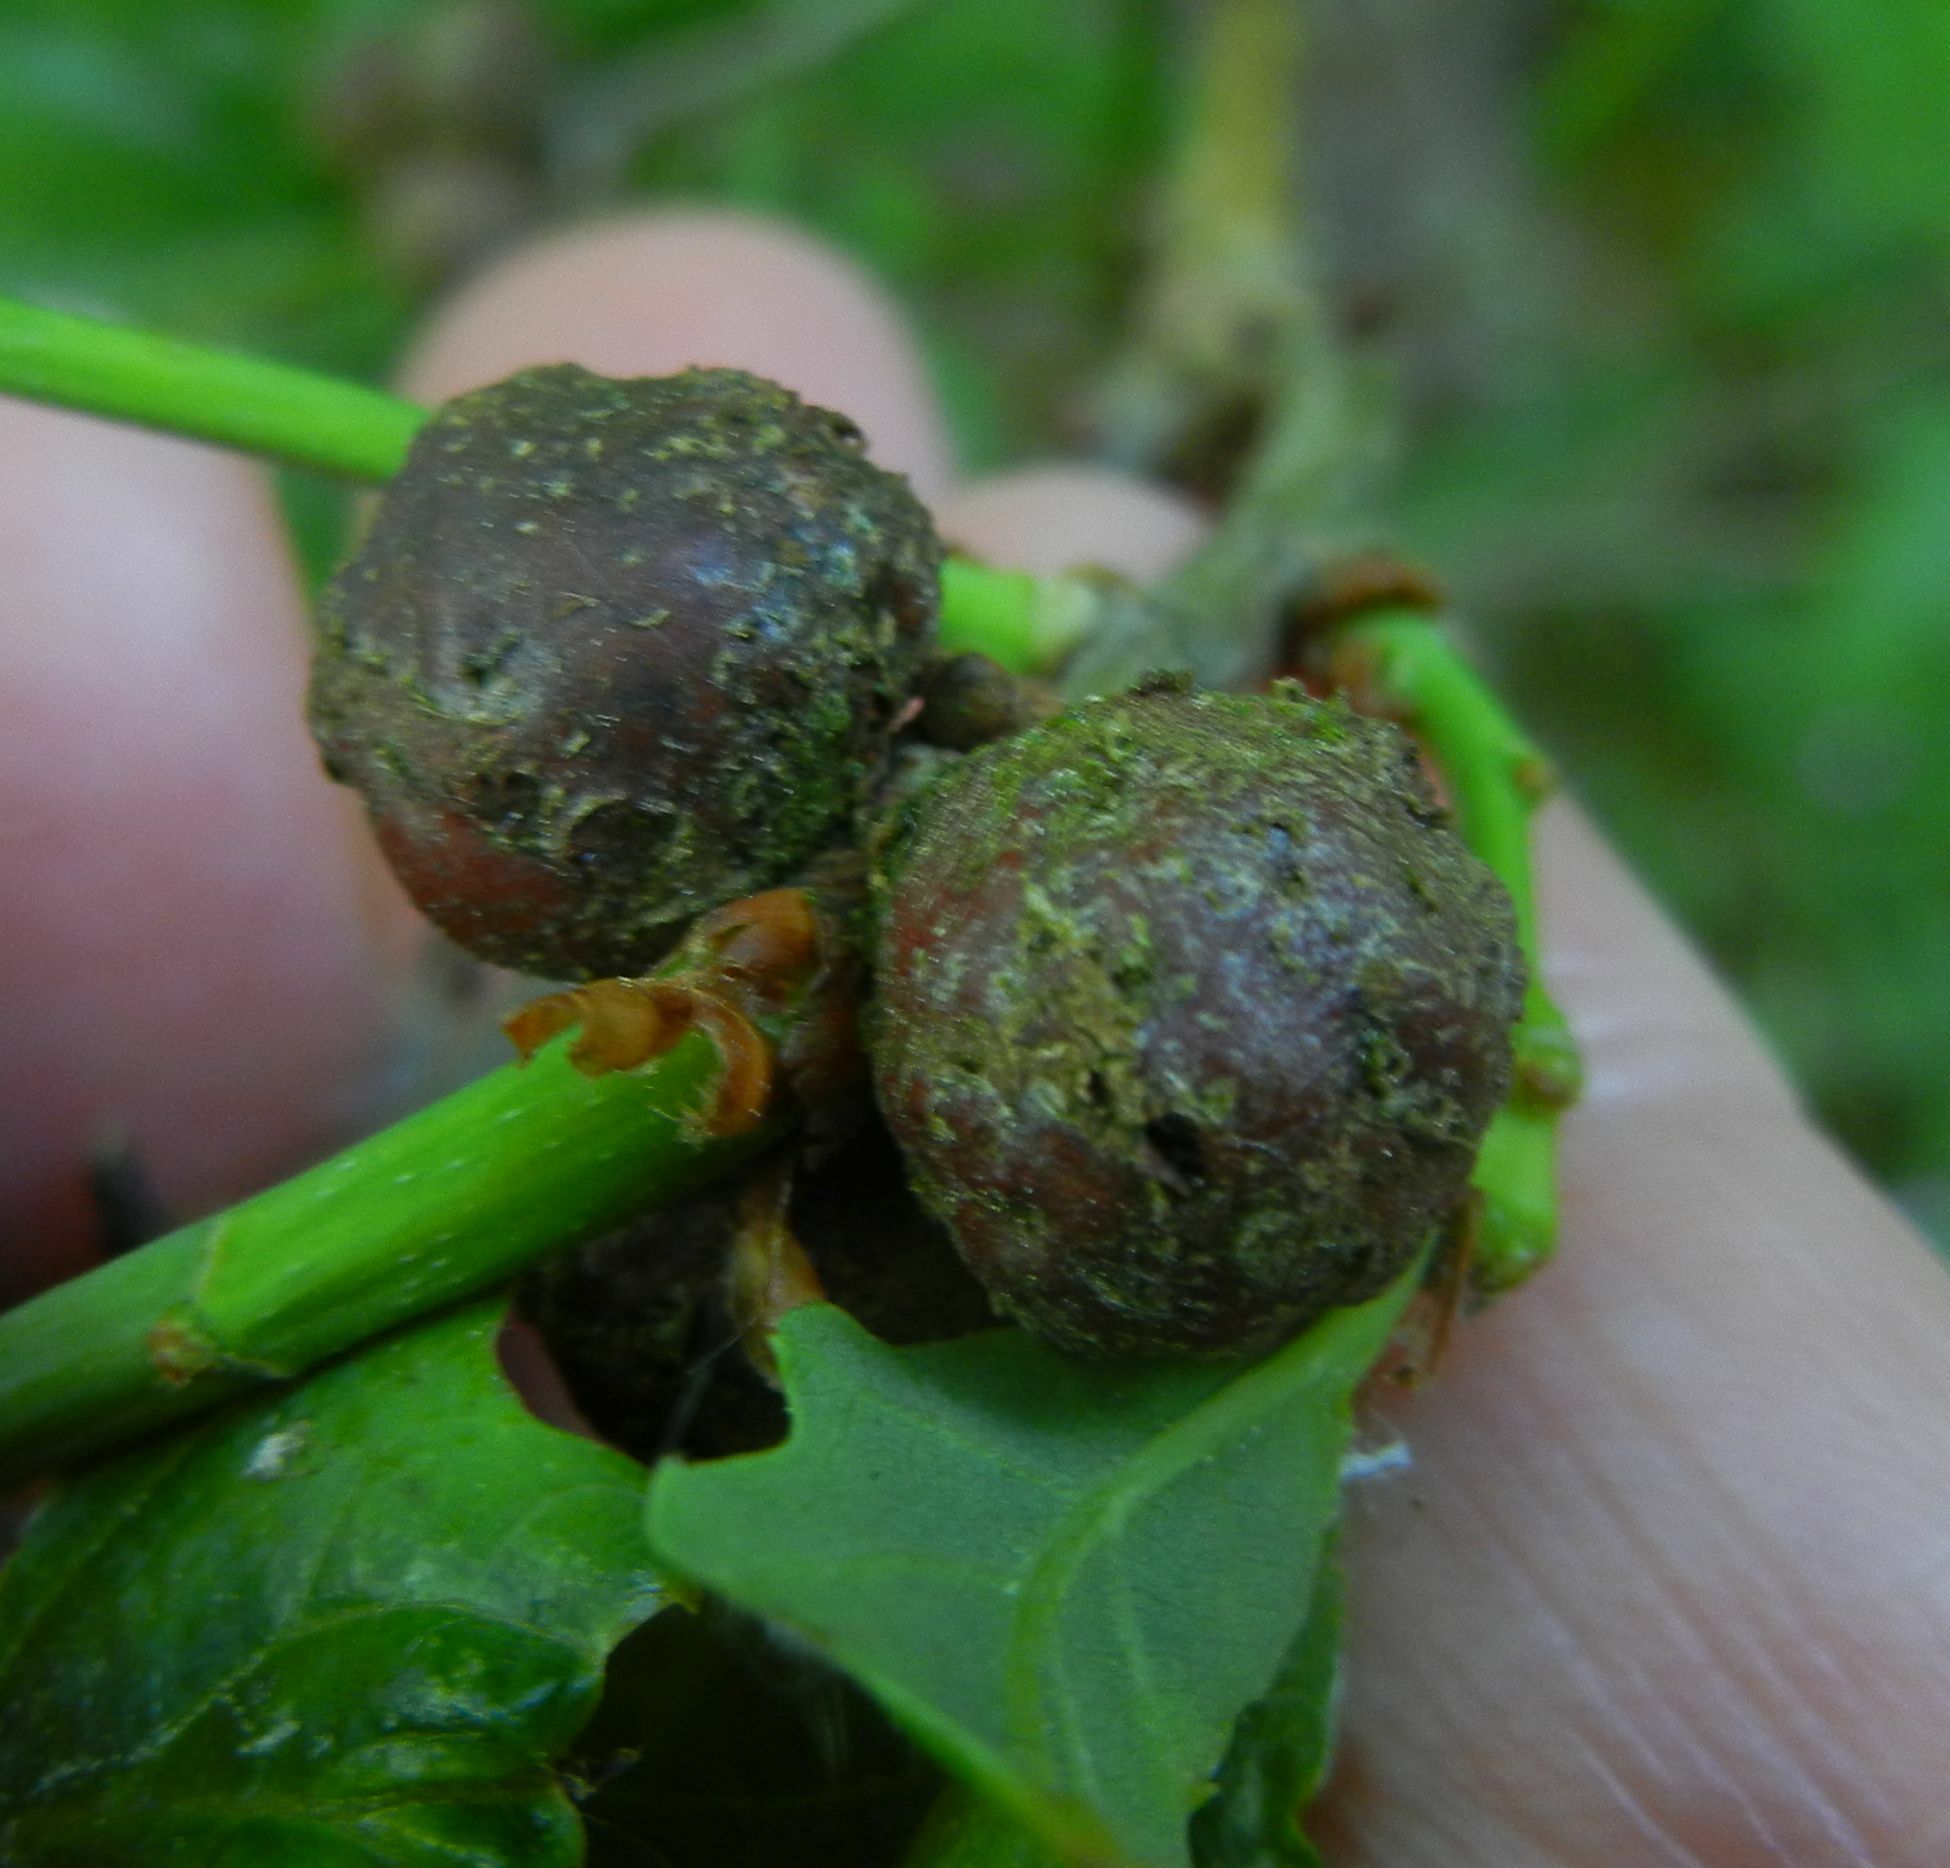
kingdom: Animalia
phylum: Arthropoda
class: Insecta
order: Hymenoptera
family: Cynipidae
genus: Andricus
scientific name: Andricus lignicolus
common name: Cola-nut gall
